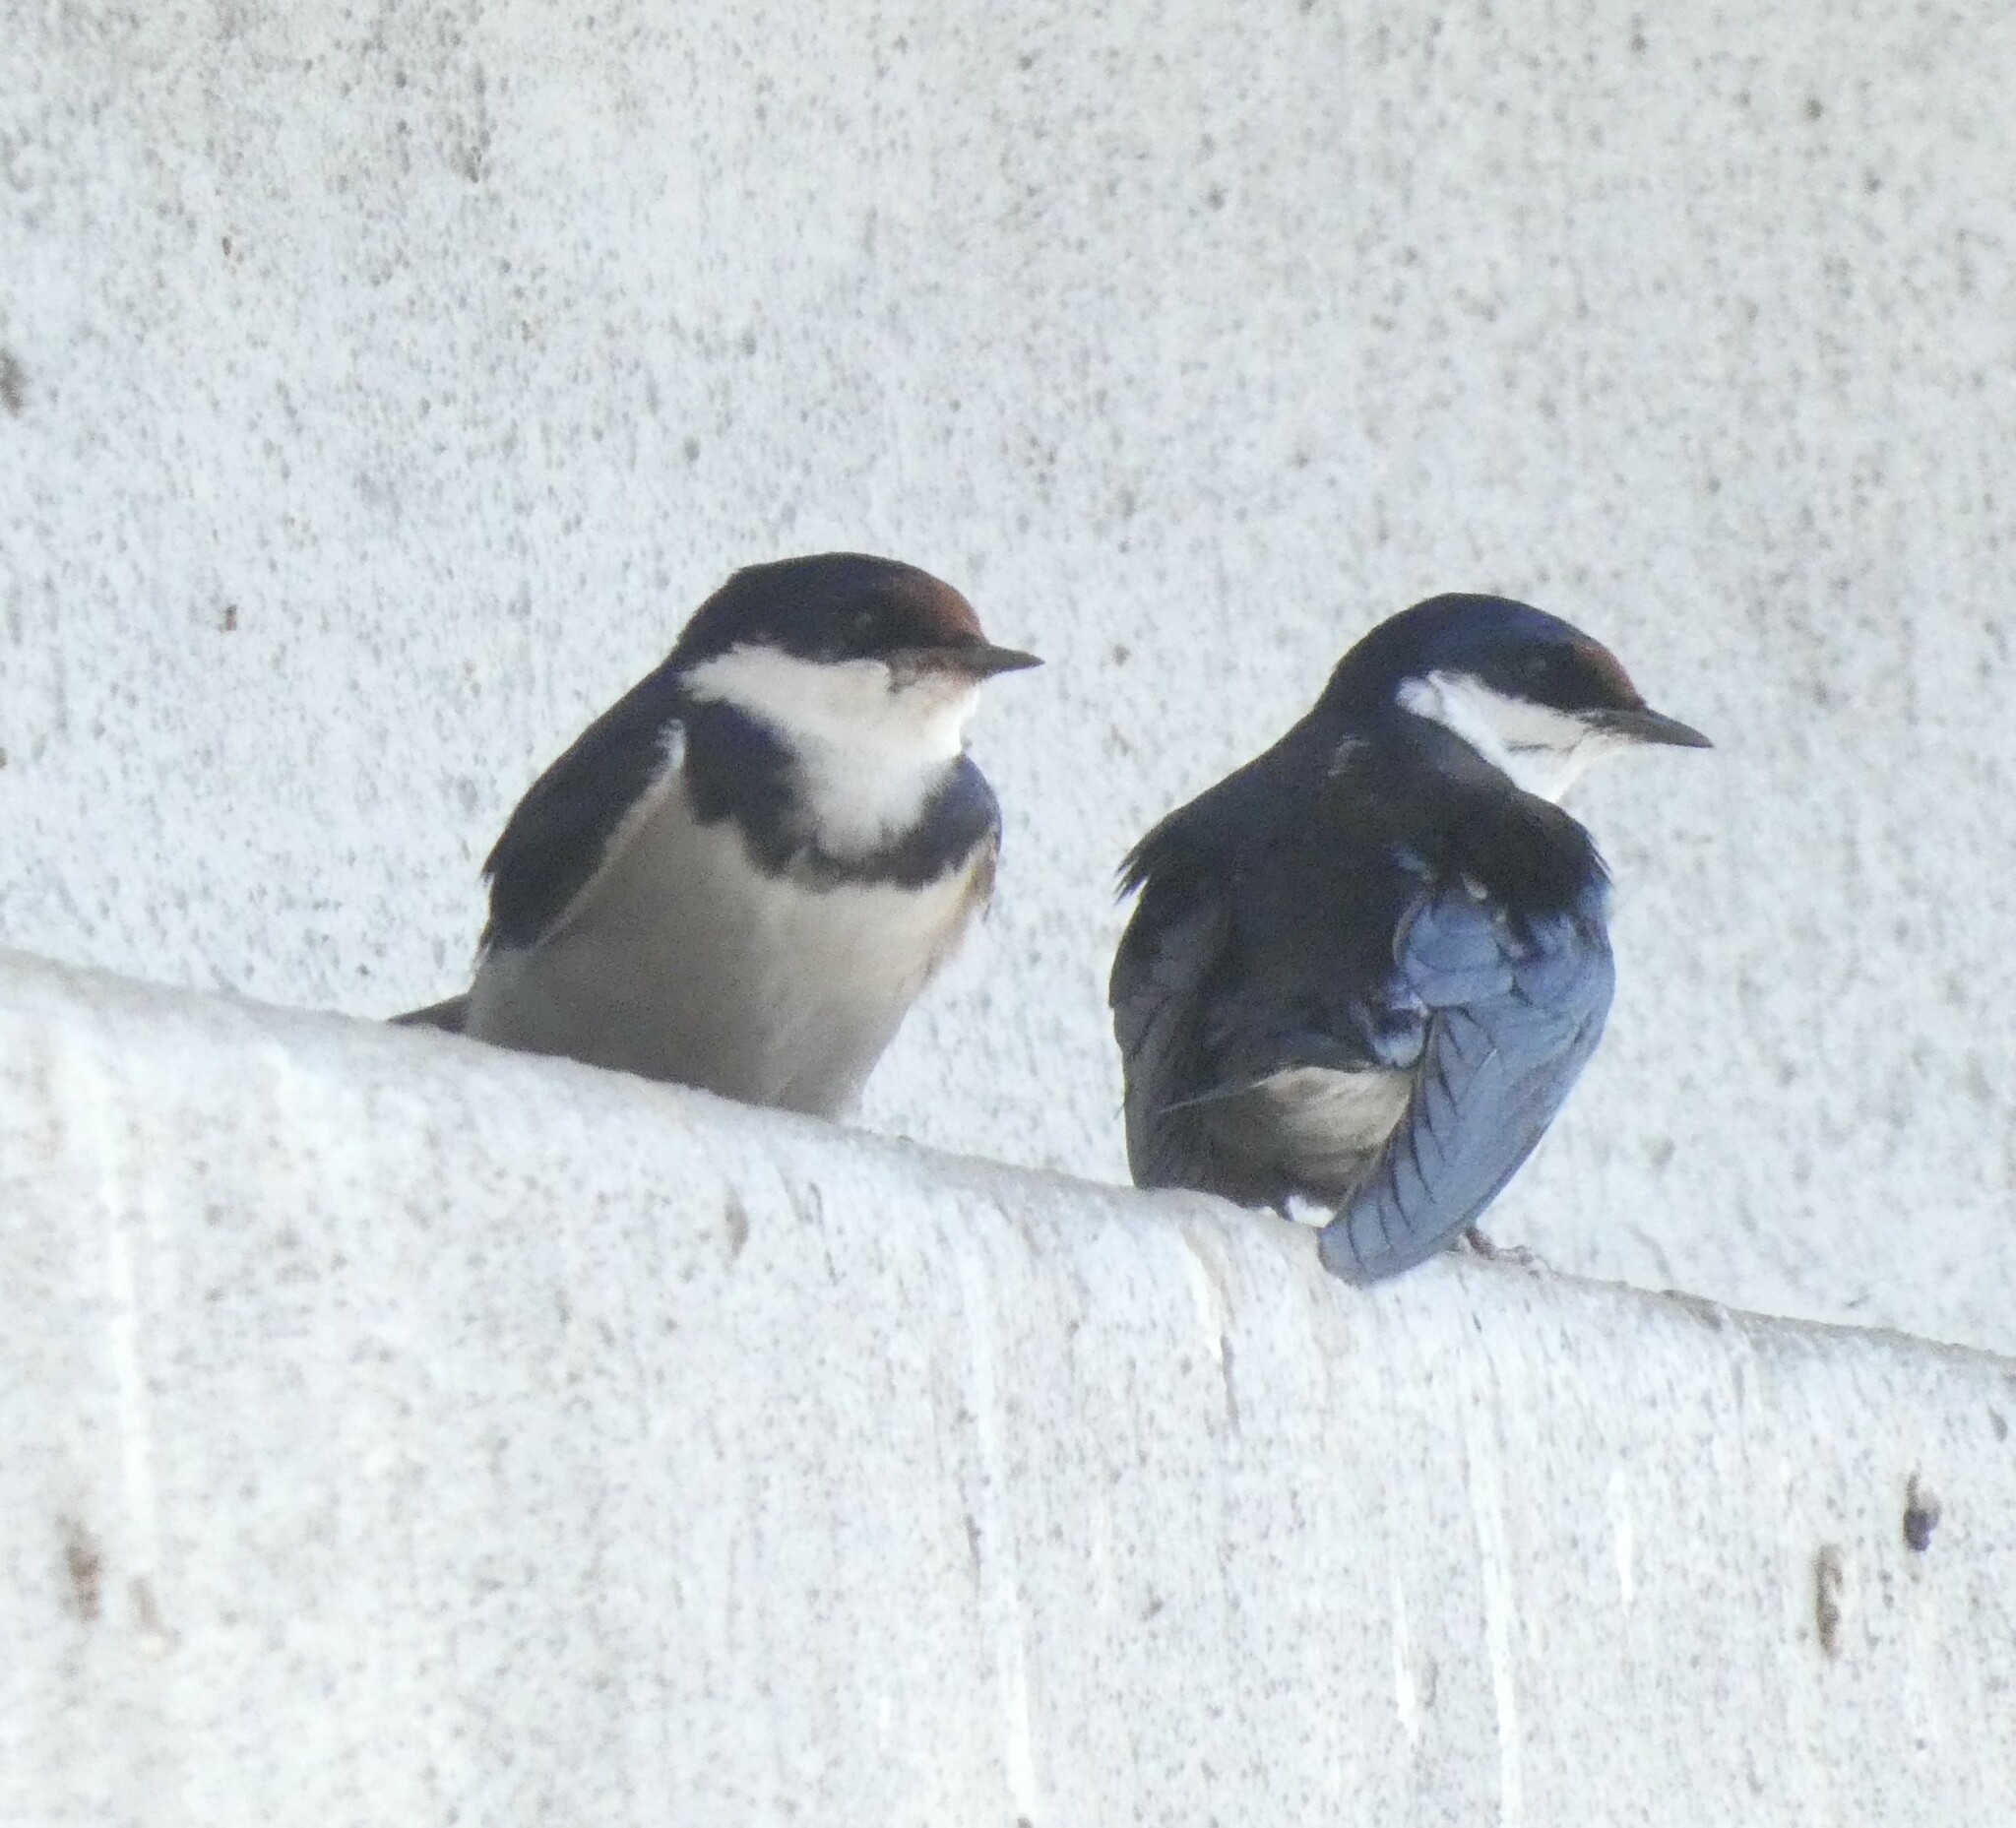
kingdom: Animalia
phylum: Chordata
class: Aves
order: Passeriformes
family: Hirundinidae
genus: Hirundo
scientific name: Hirundo albigularis
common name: White-throated swallow
